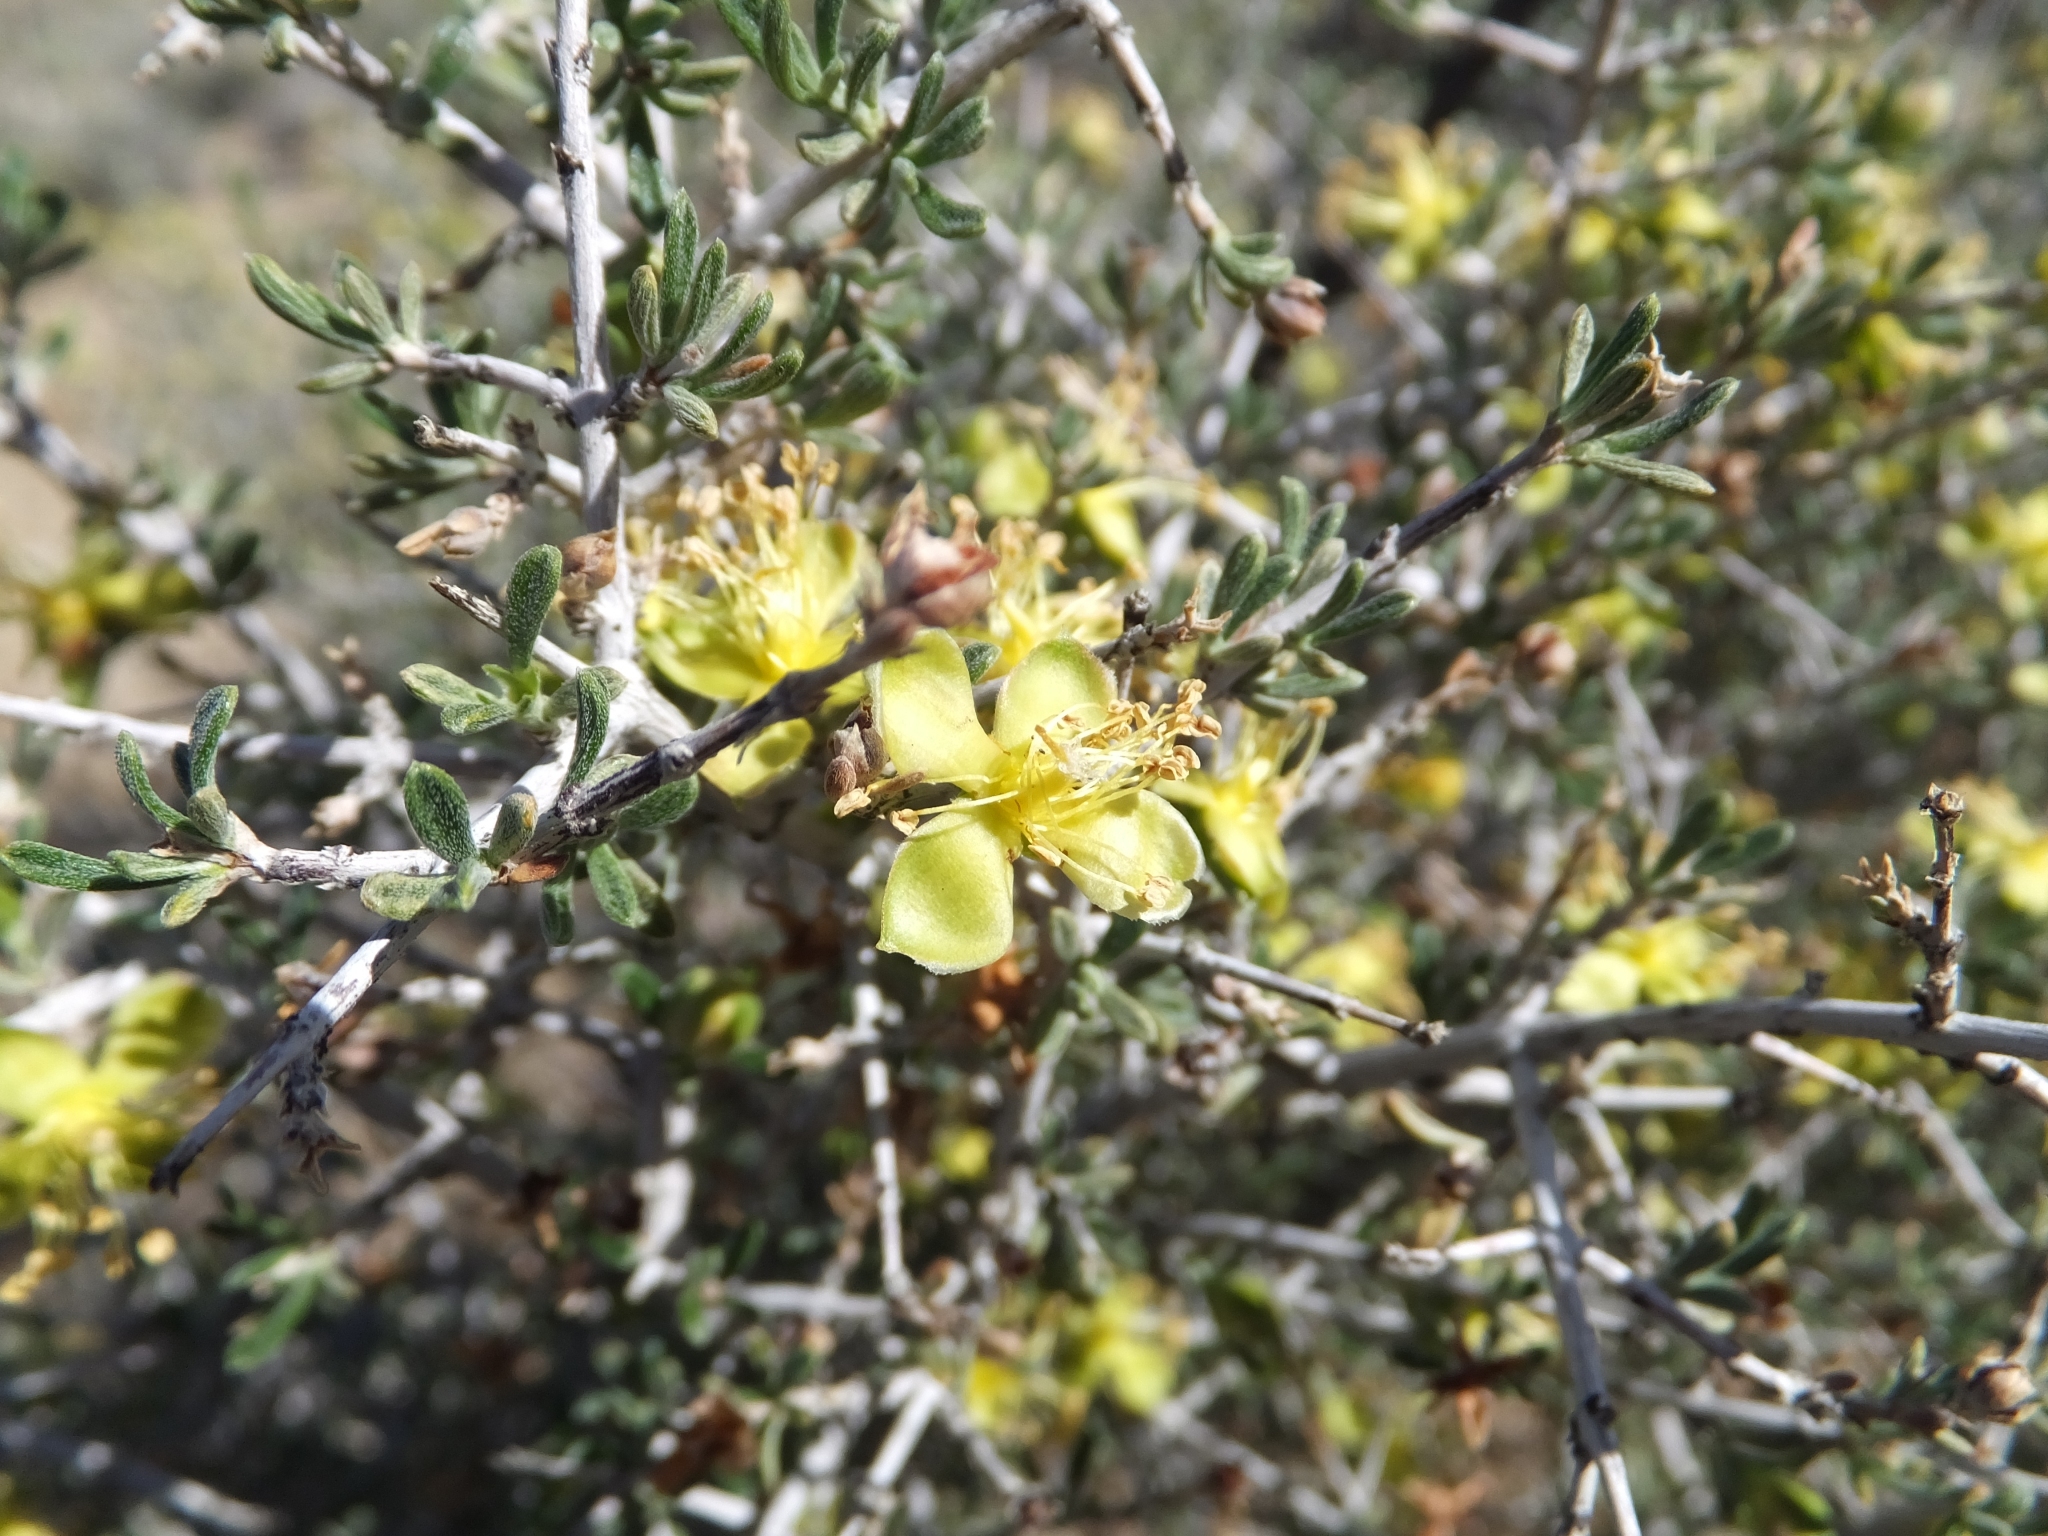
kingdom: Plantae
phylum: Tracheophyta
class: Magnoliopsida
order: Rosales
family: Rosaceae
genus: Coleogyne
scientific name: Coleogyne ramosissima
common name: Blackbrush
